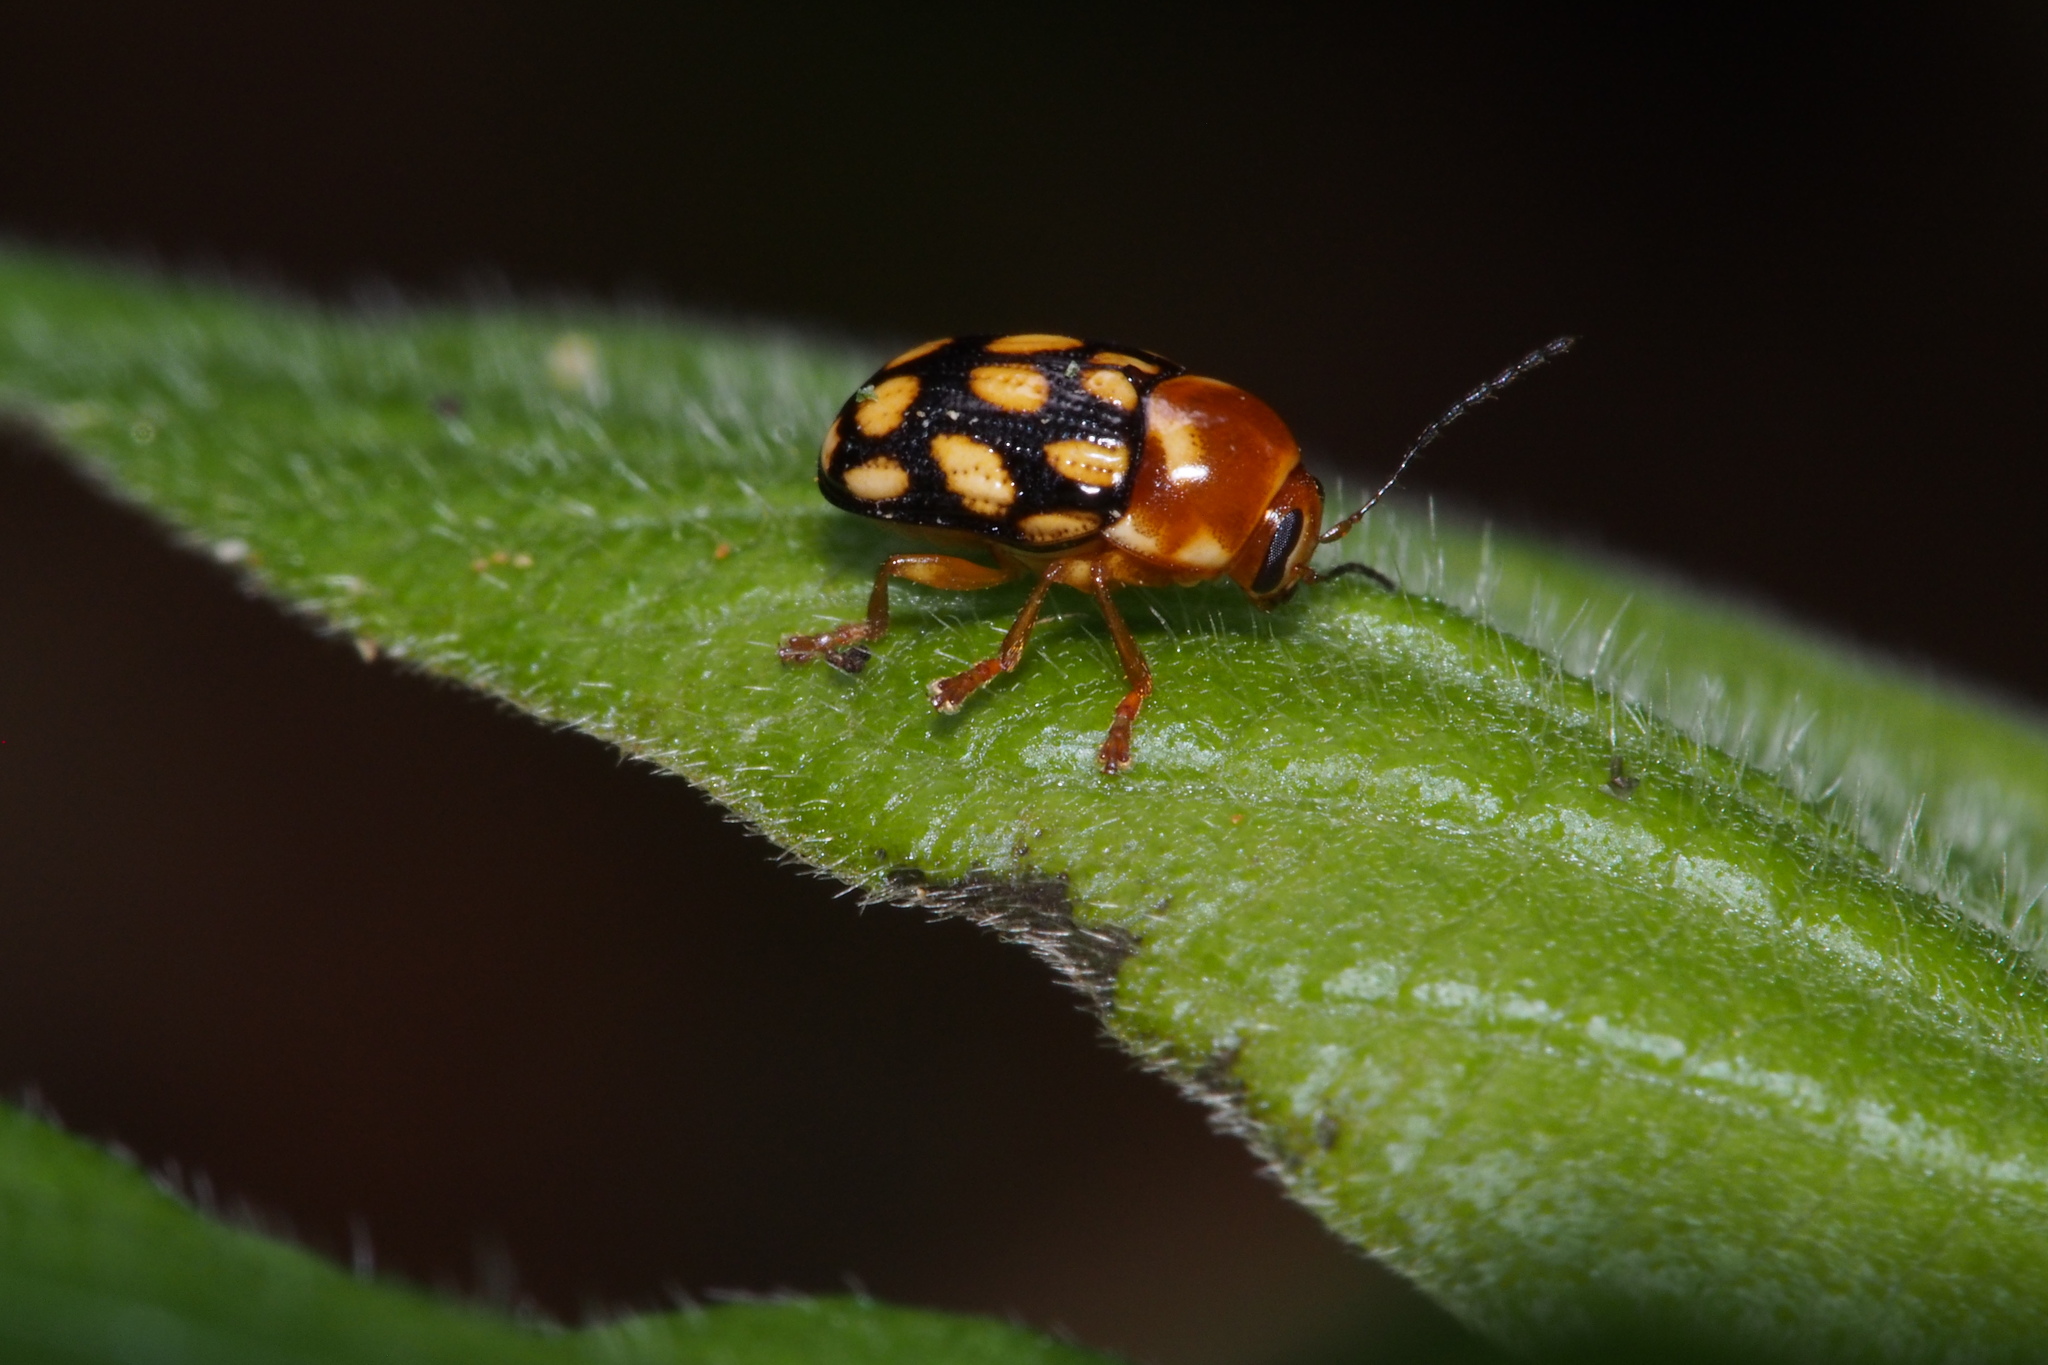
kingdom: Animalia
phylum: Arthropoda
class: Insecta
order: Coleoptera
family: Chrysomelidae
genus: Cryptocephalus
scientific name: Cryptocephalus perelegans
